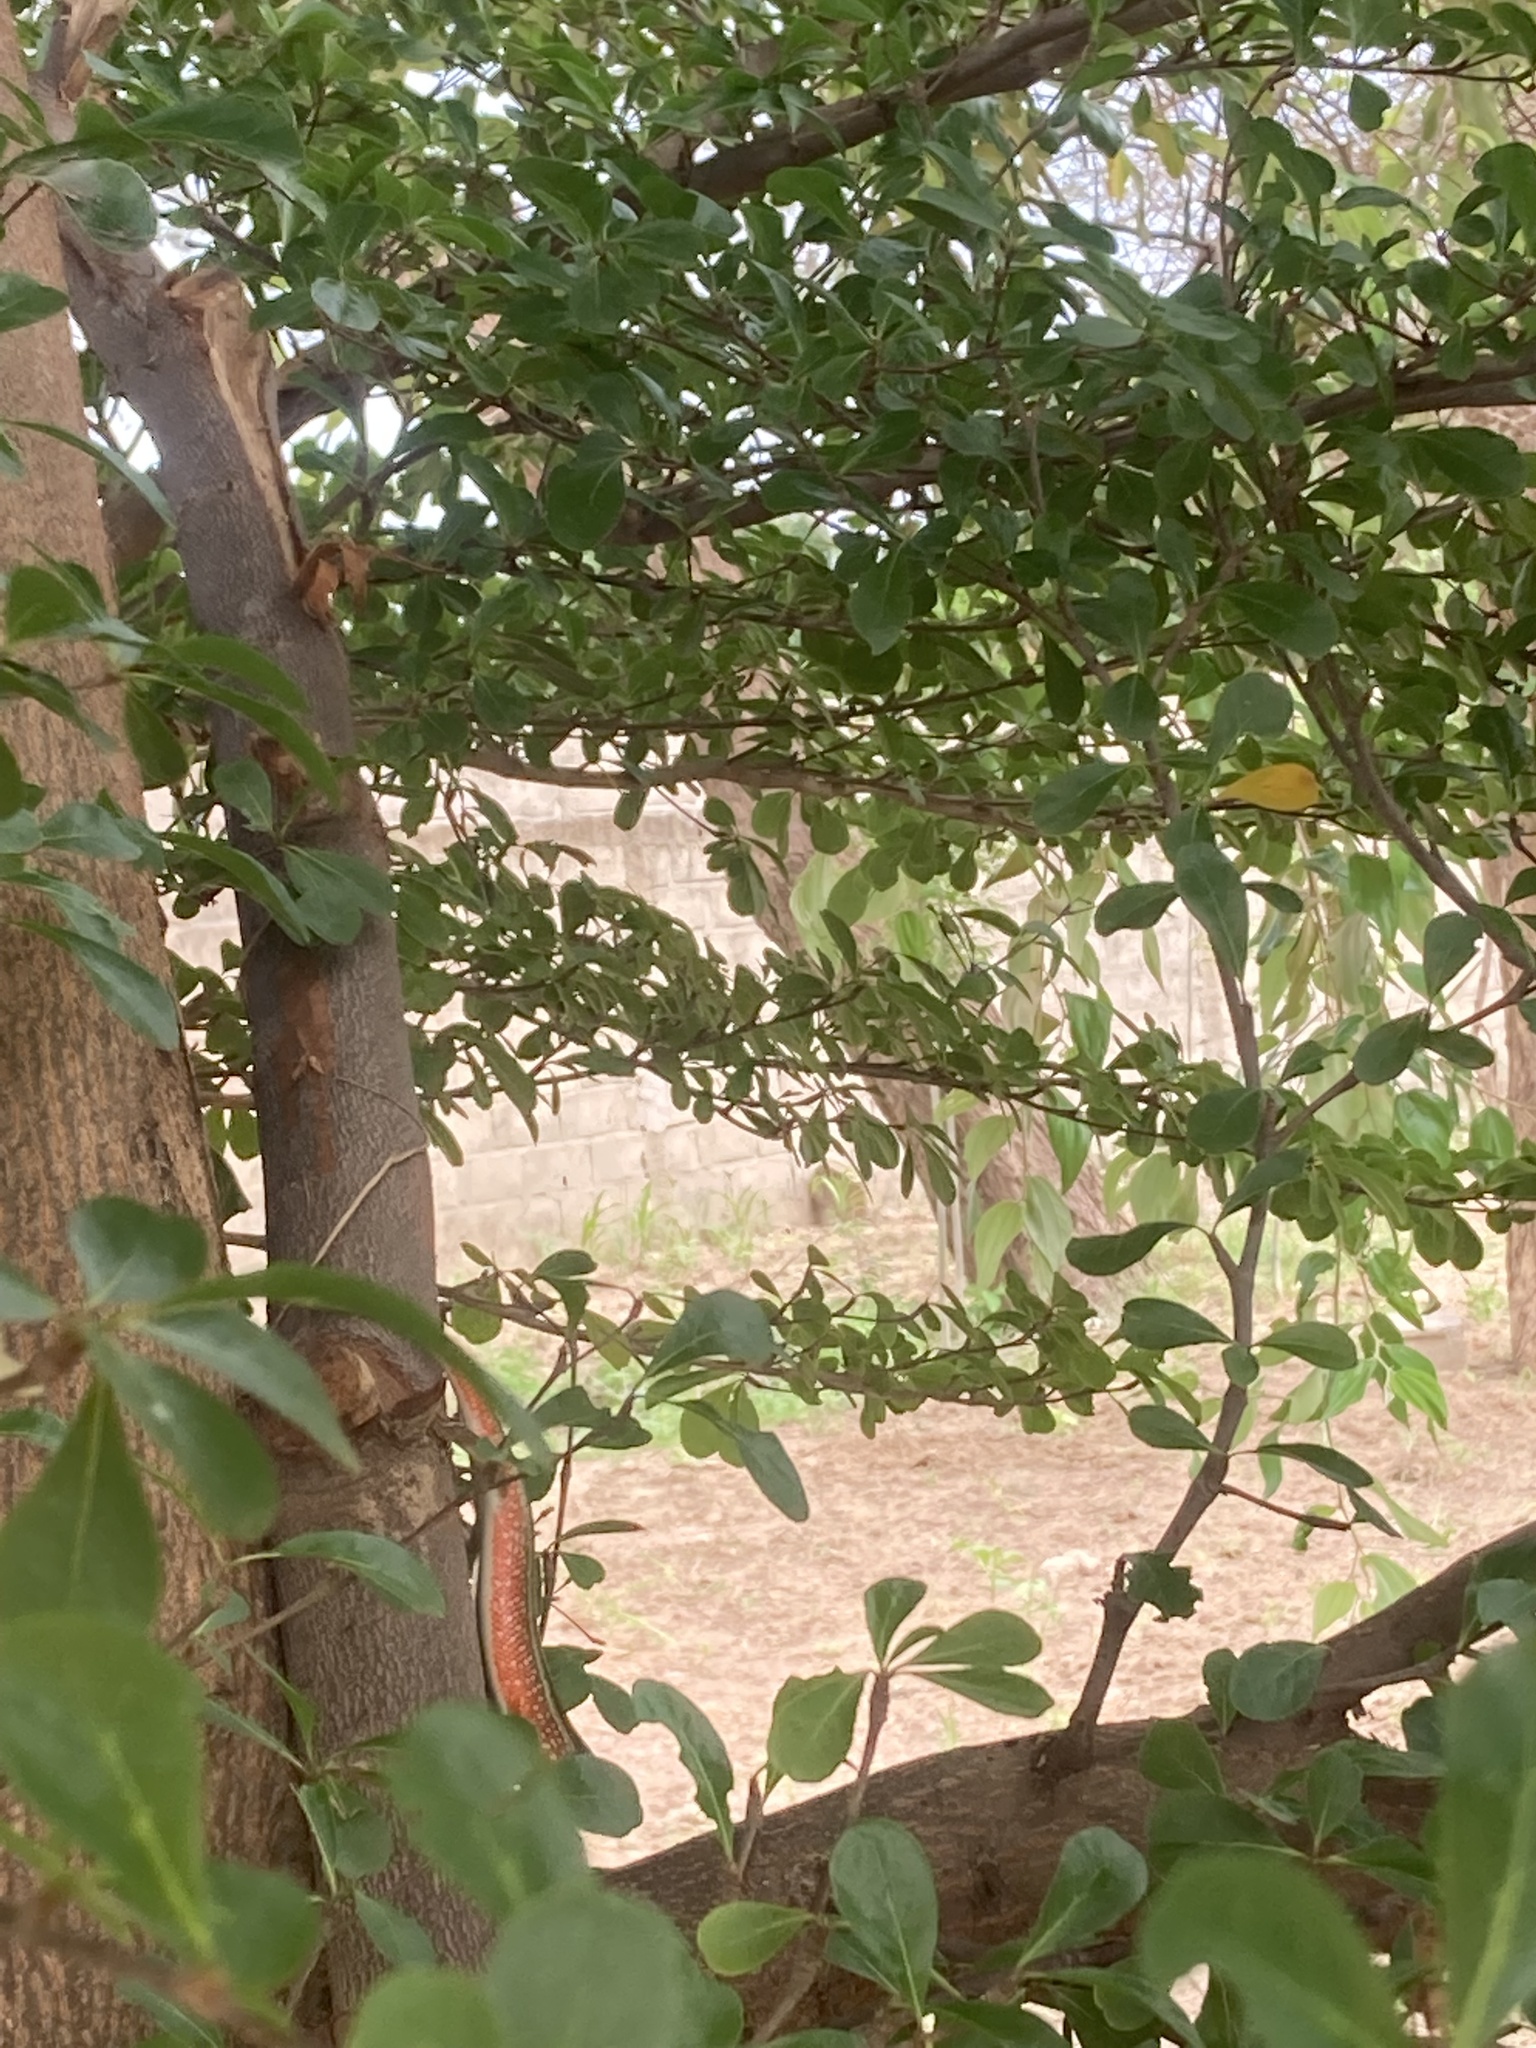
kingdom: Animalia
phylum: Chordata
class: Squamata
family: Scincidae
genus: Trachylepis
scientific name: Trachylepis perrotetii
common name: Teita mabuya
